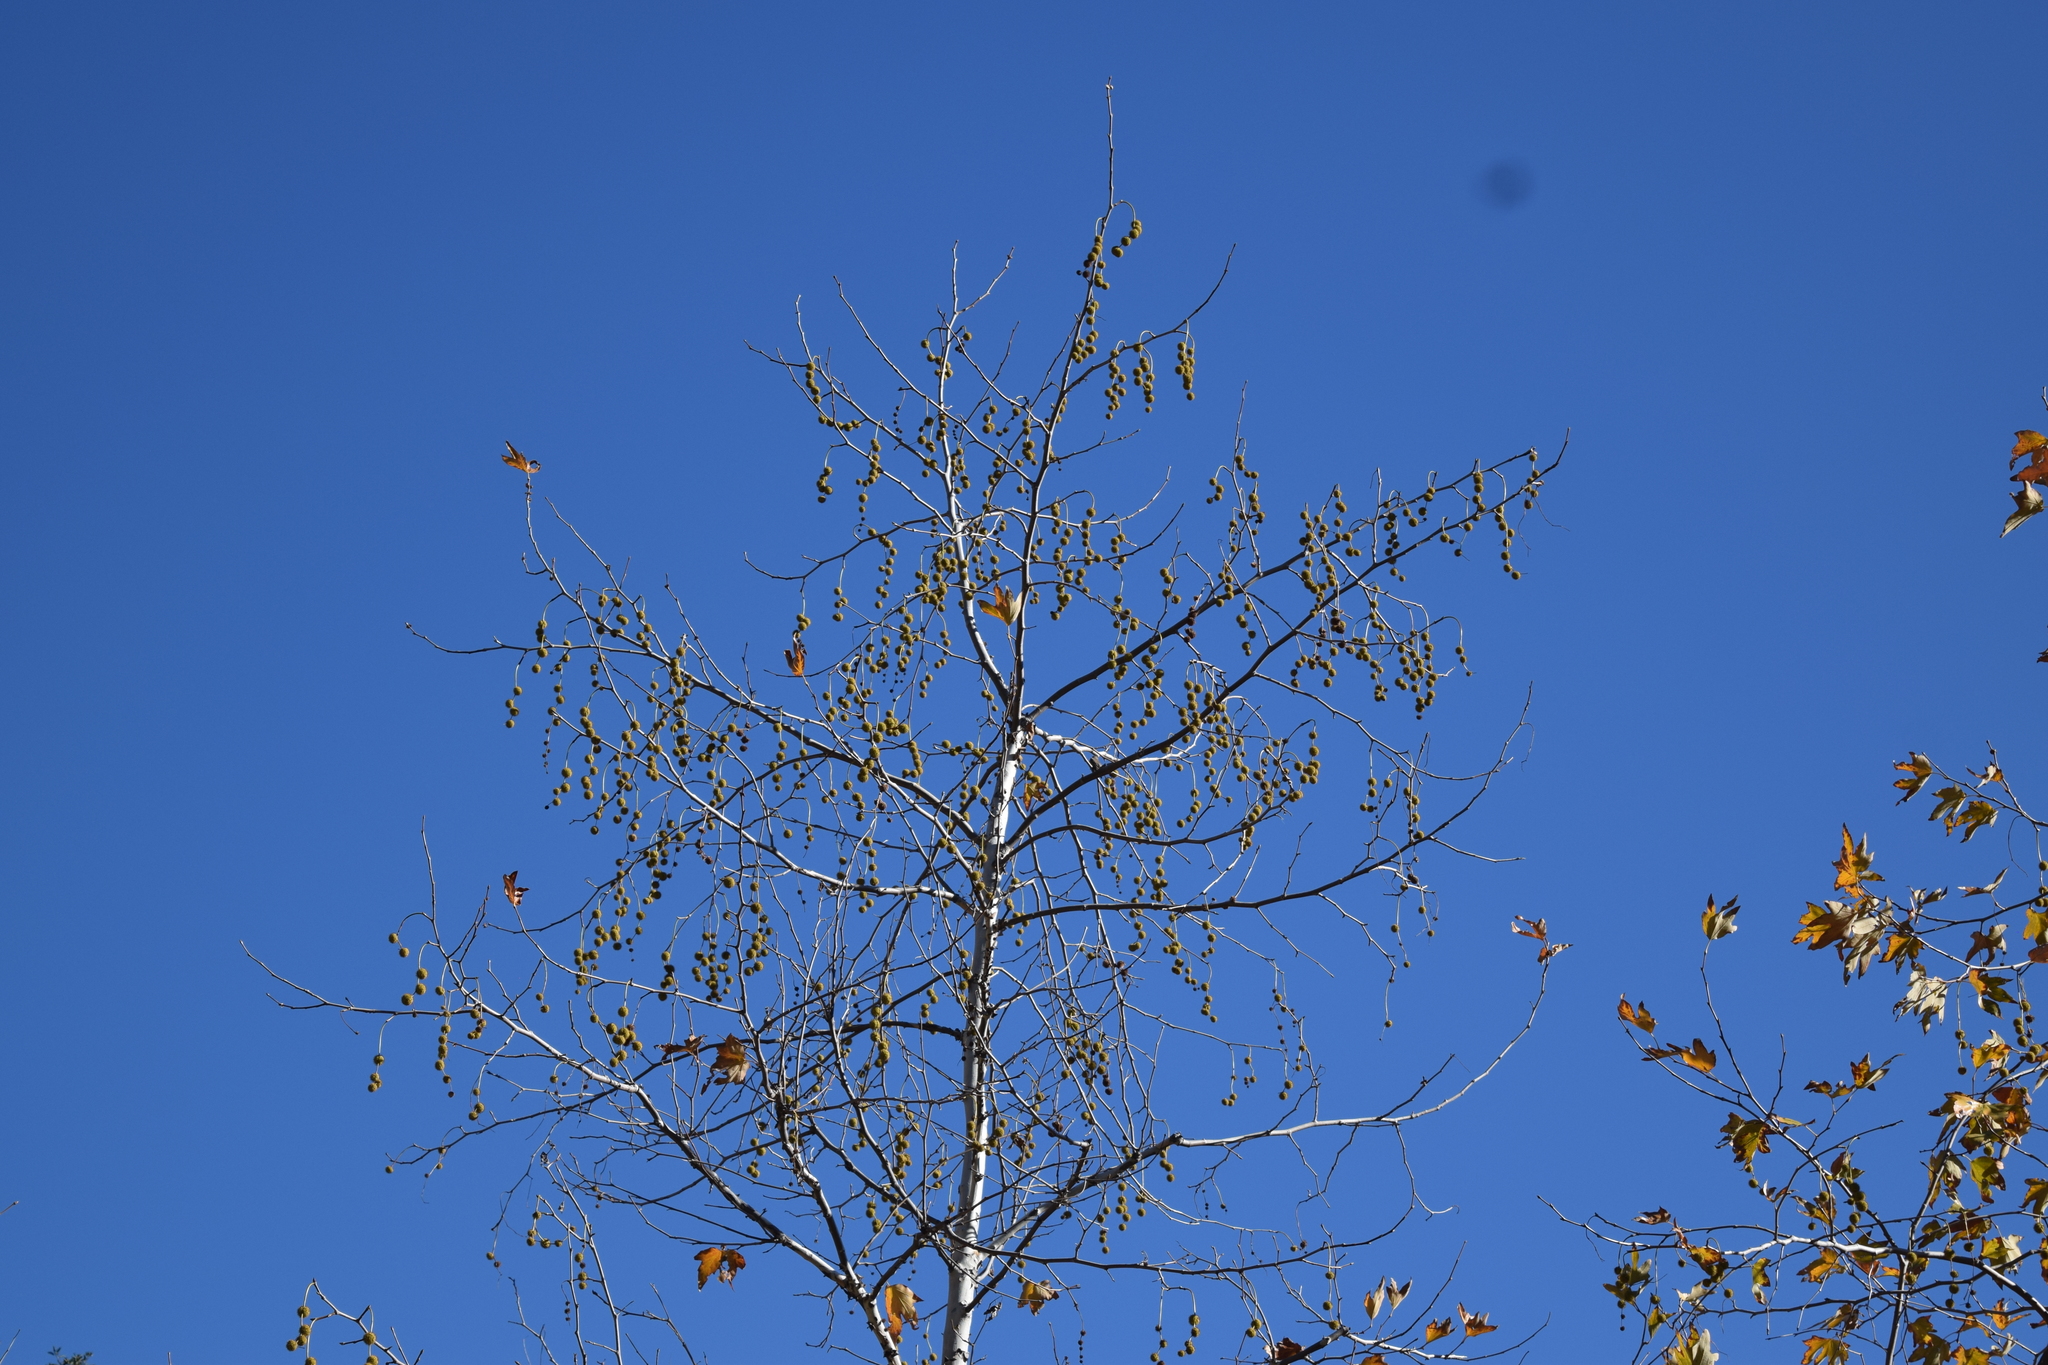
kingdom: Plantae
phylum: Tracheophyta
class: Magnoliopsida
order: Proteales
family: Platanaceae
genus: Platanus
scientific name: Platanus racemosa
